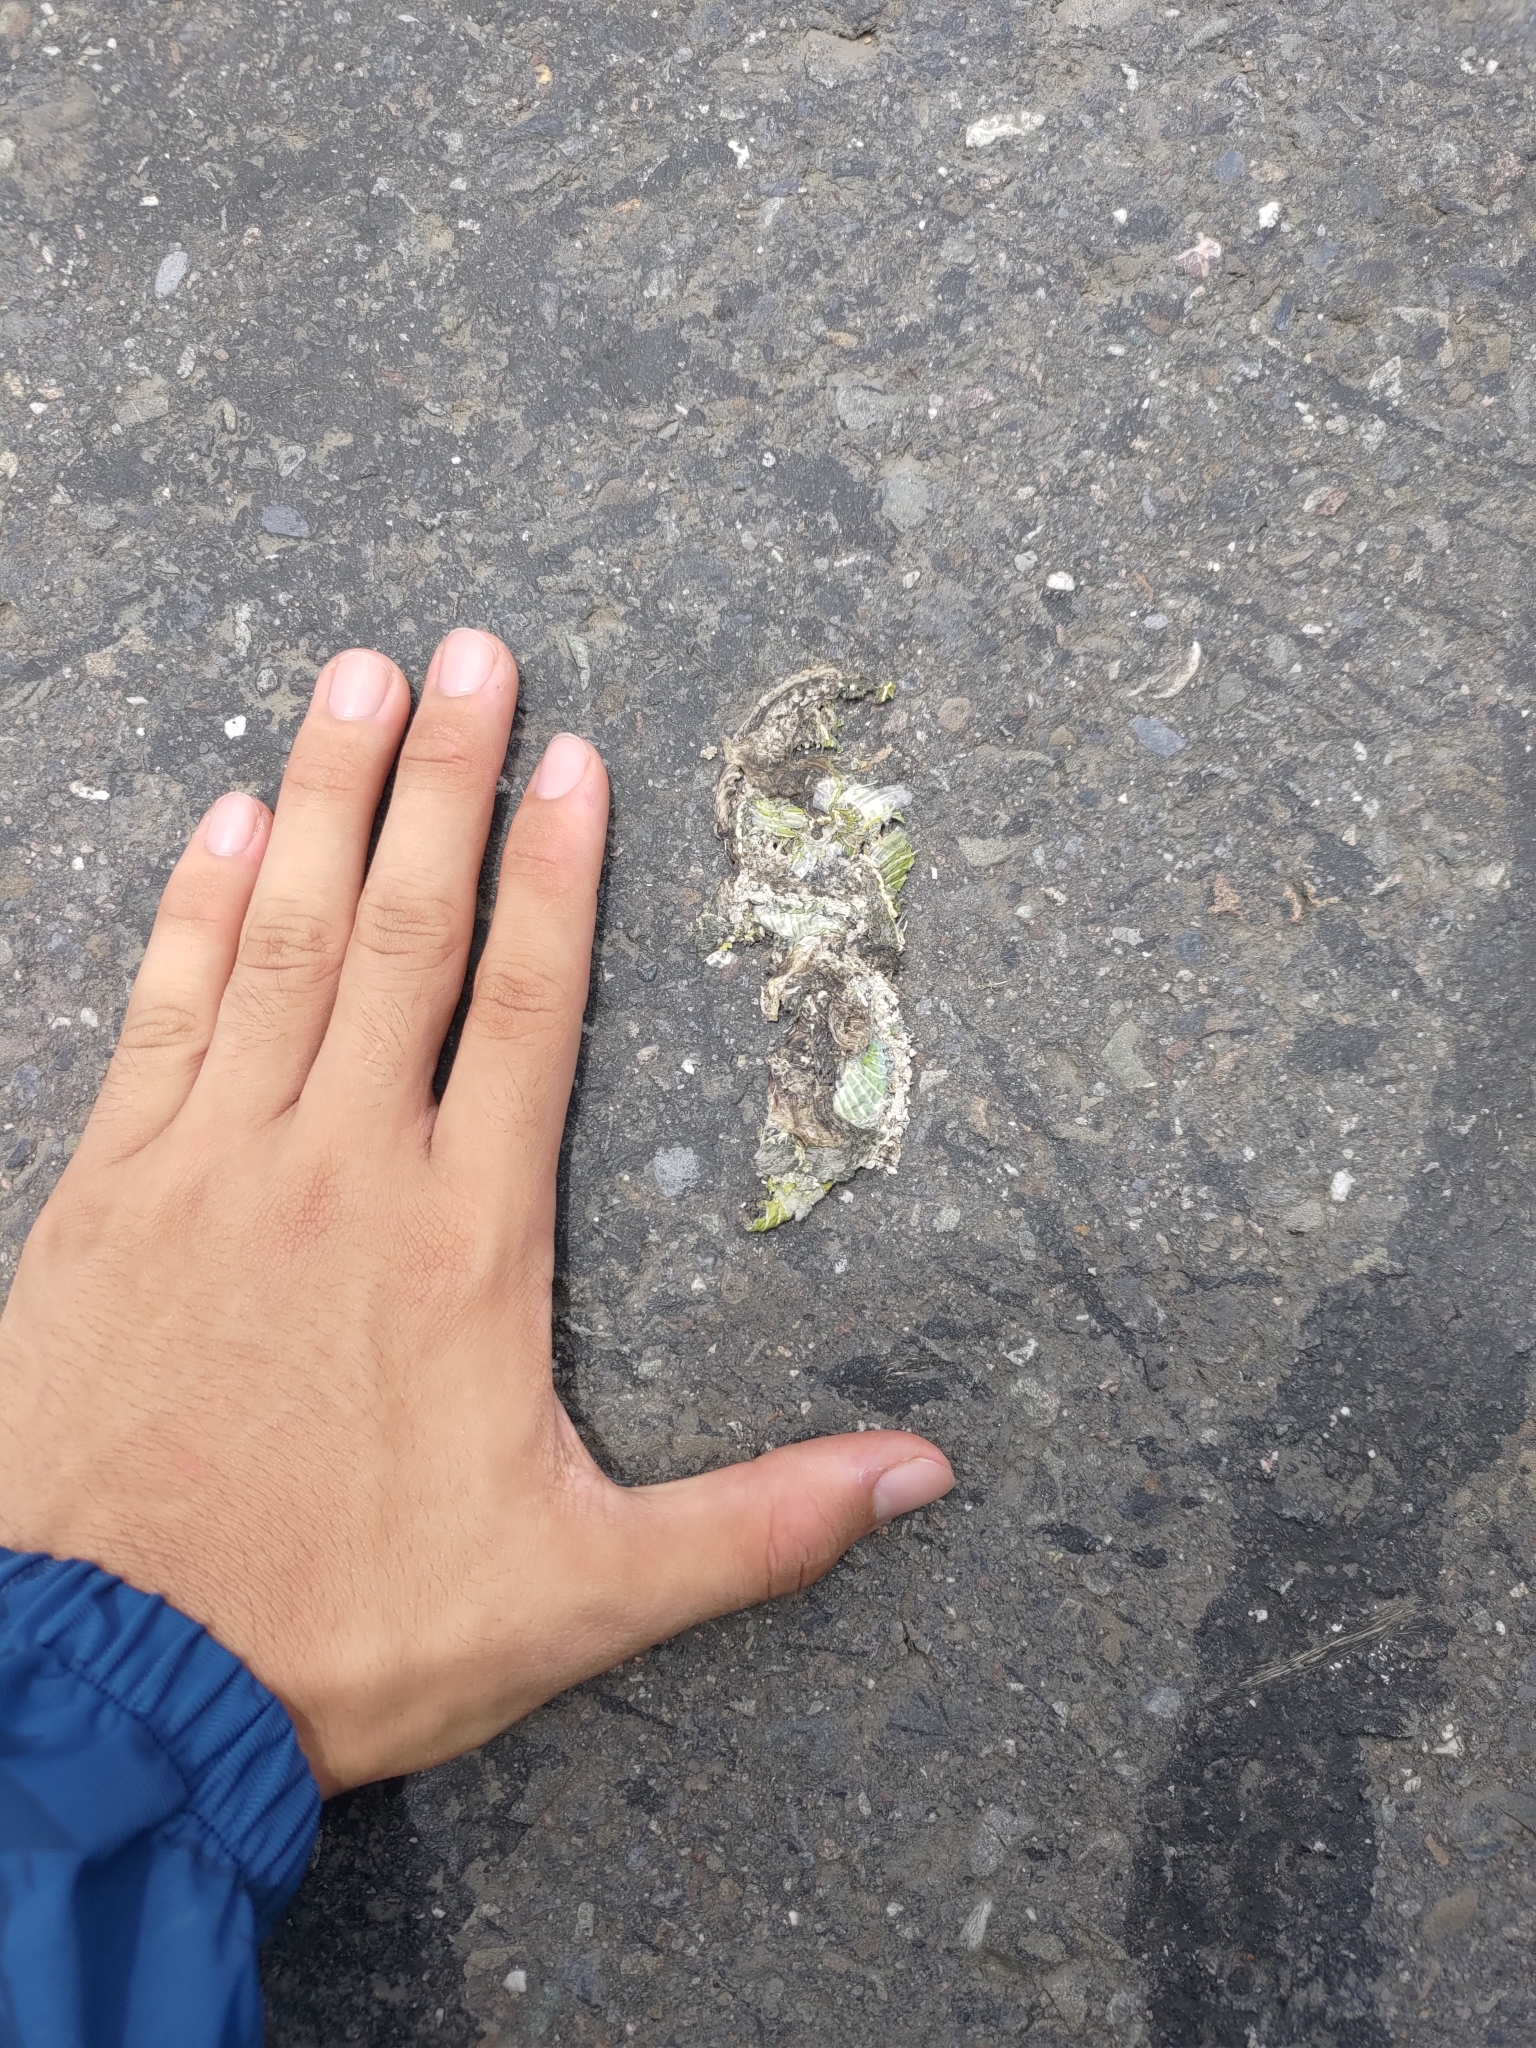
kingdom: Animalia
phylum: Chordata
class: Squamata
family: Viperidae
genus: Trimeresurus
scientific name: Trimeresurus stejnegeri
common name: Chen’s bamboo pit viper
